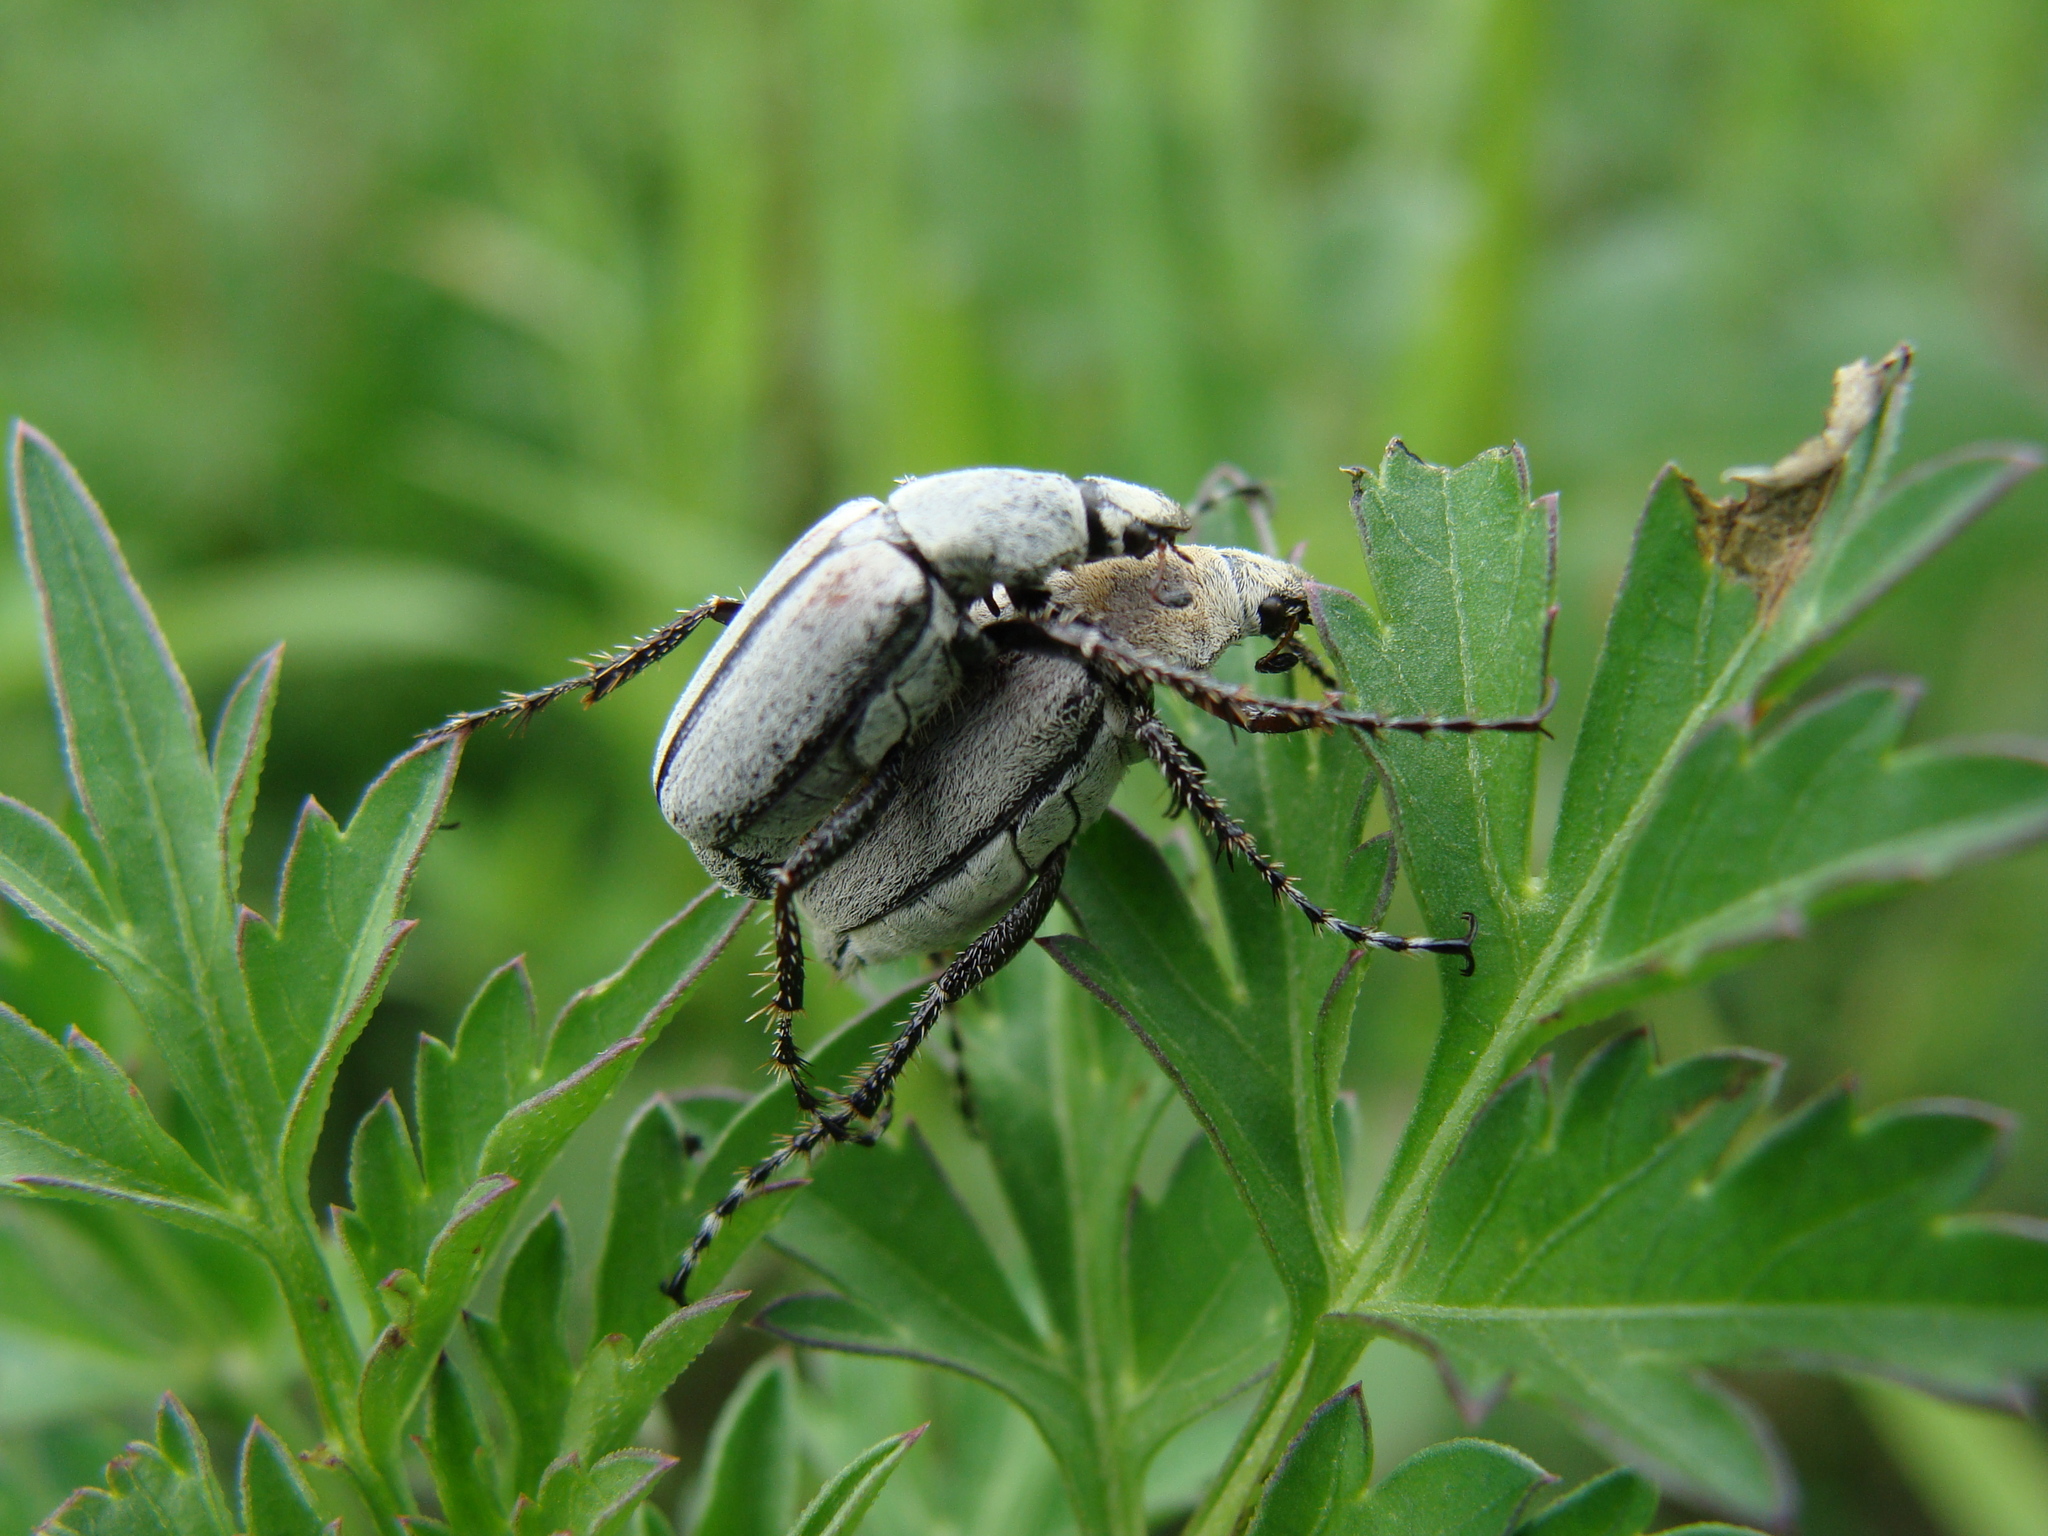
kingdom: Animalia
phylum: Arthropoda
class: Insecta
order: Coleoptera
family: Scarabaeidae
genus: Macrodactylus
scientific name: Macrodactylus nigripes
